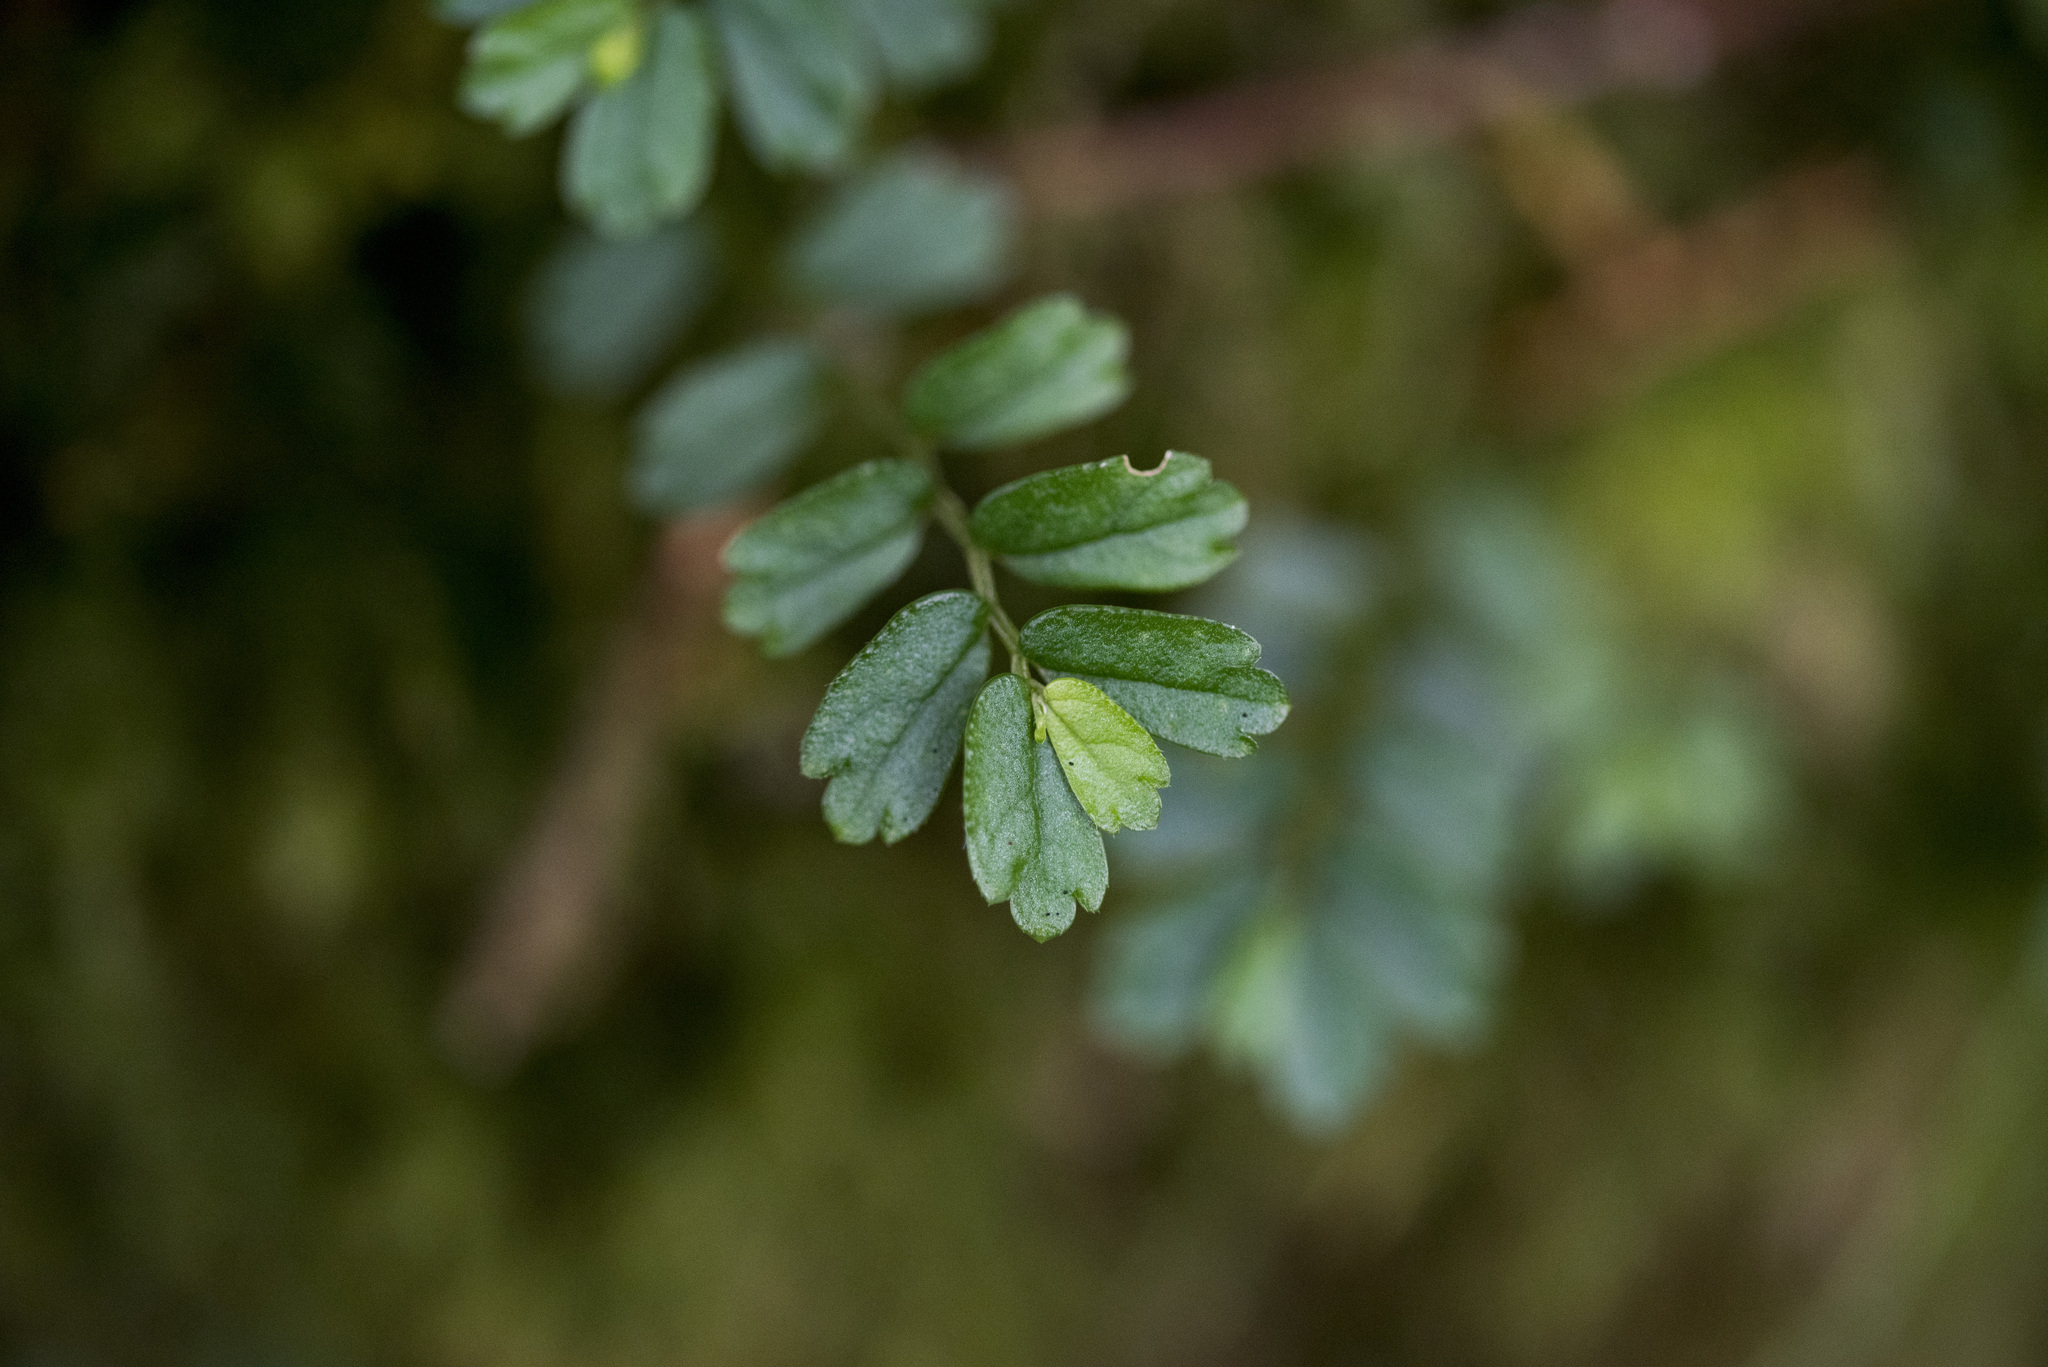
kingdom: Plantae
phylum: Tracheophyta
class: Magnoliopsida
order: Rosales
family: Urticaceae
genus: Elatostema
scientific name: Elatostema obtusum
